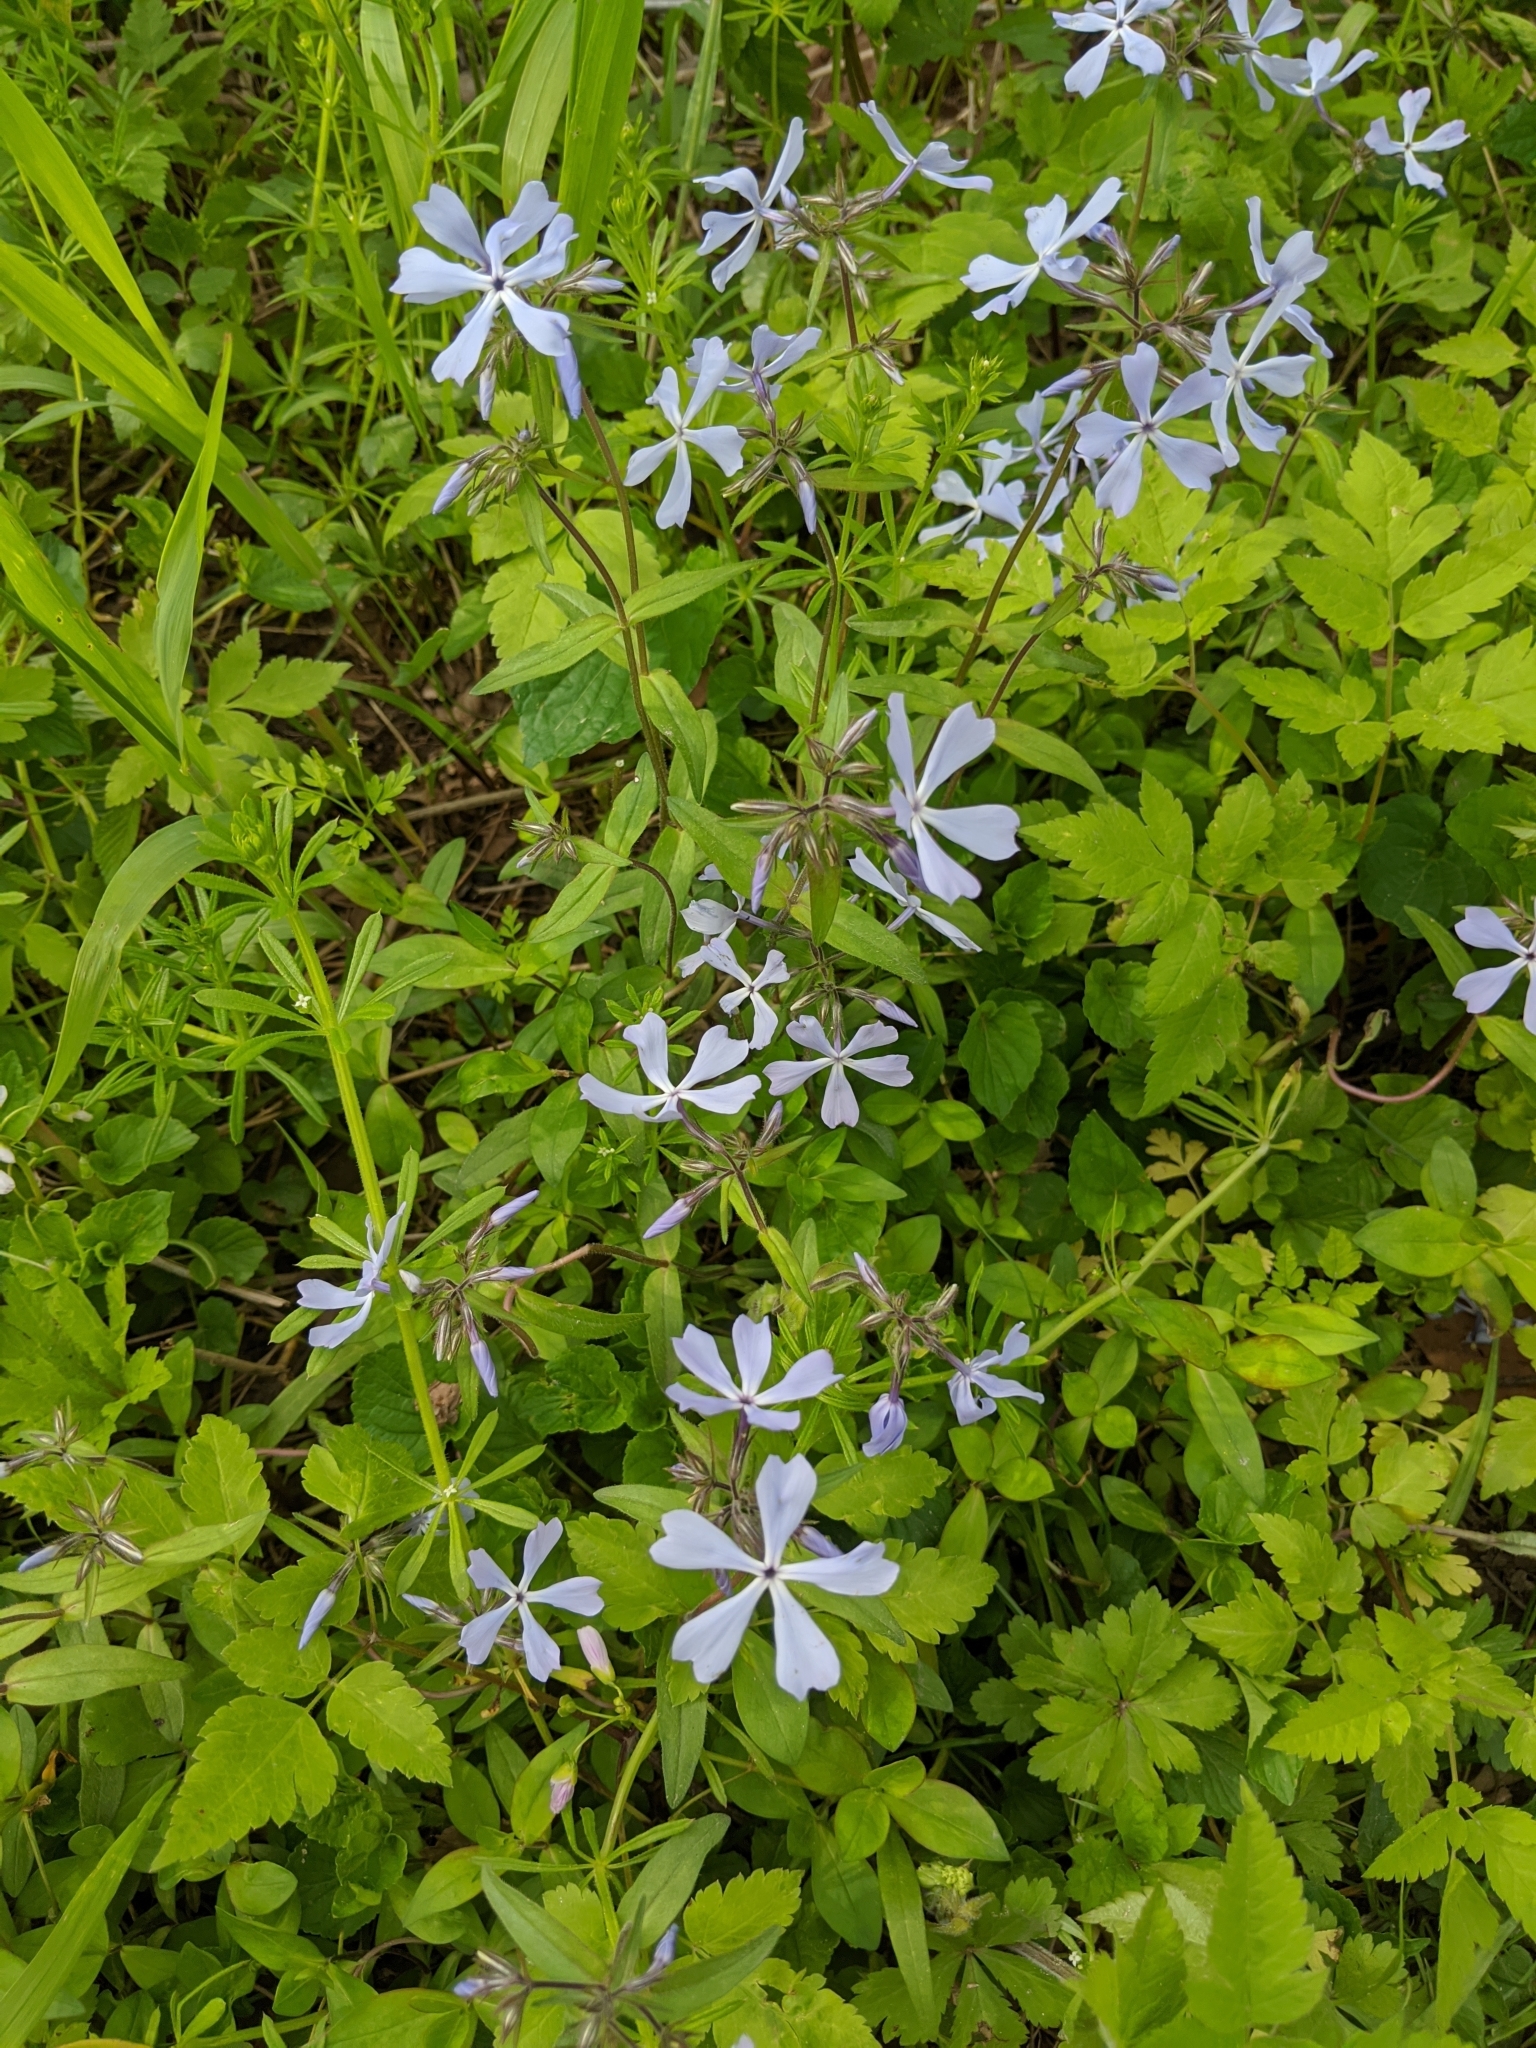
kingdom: Plantae
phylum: Tracheophyta
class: Magnoliopsida
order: Ericales
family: Polemoniaceae
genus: Phlox
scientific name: Phlox divaricata
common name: Blue phlox
